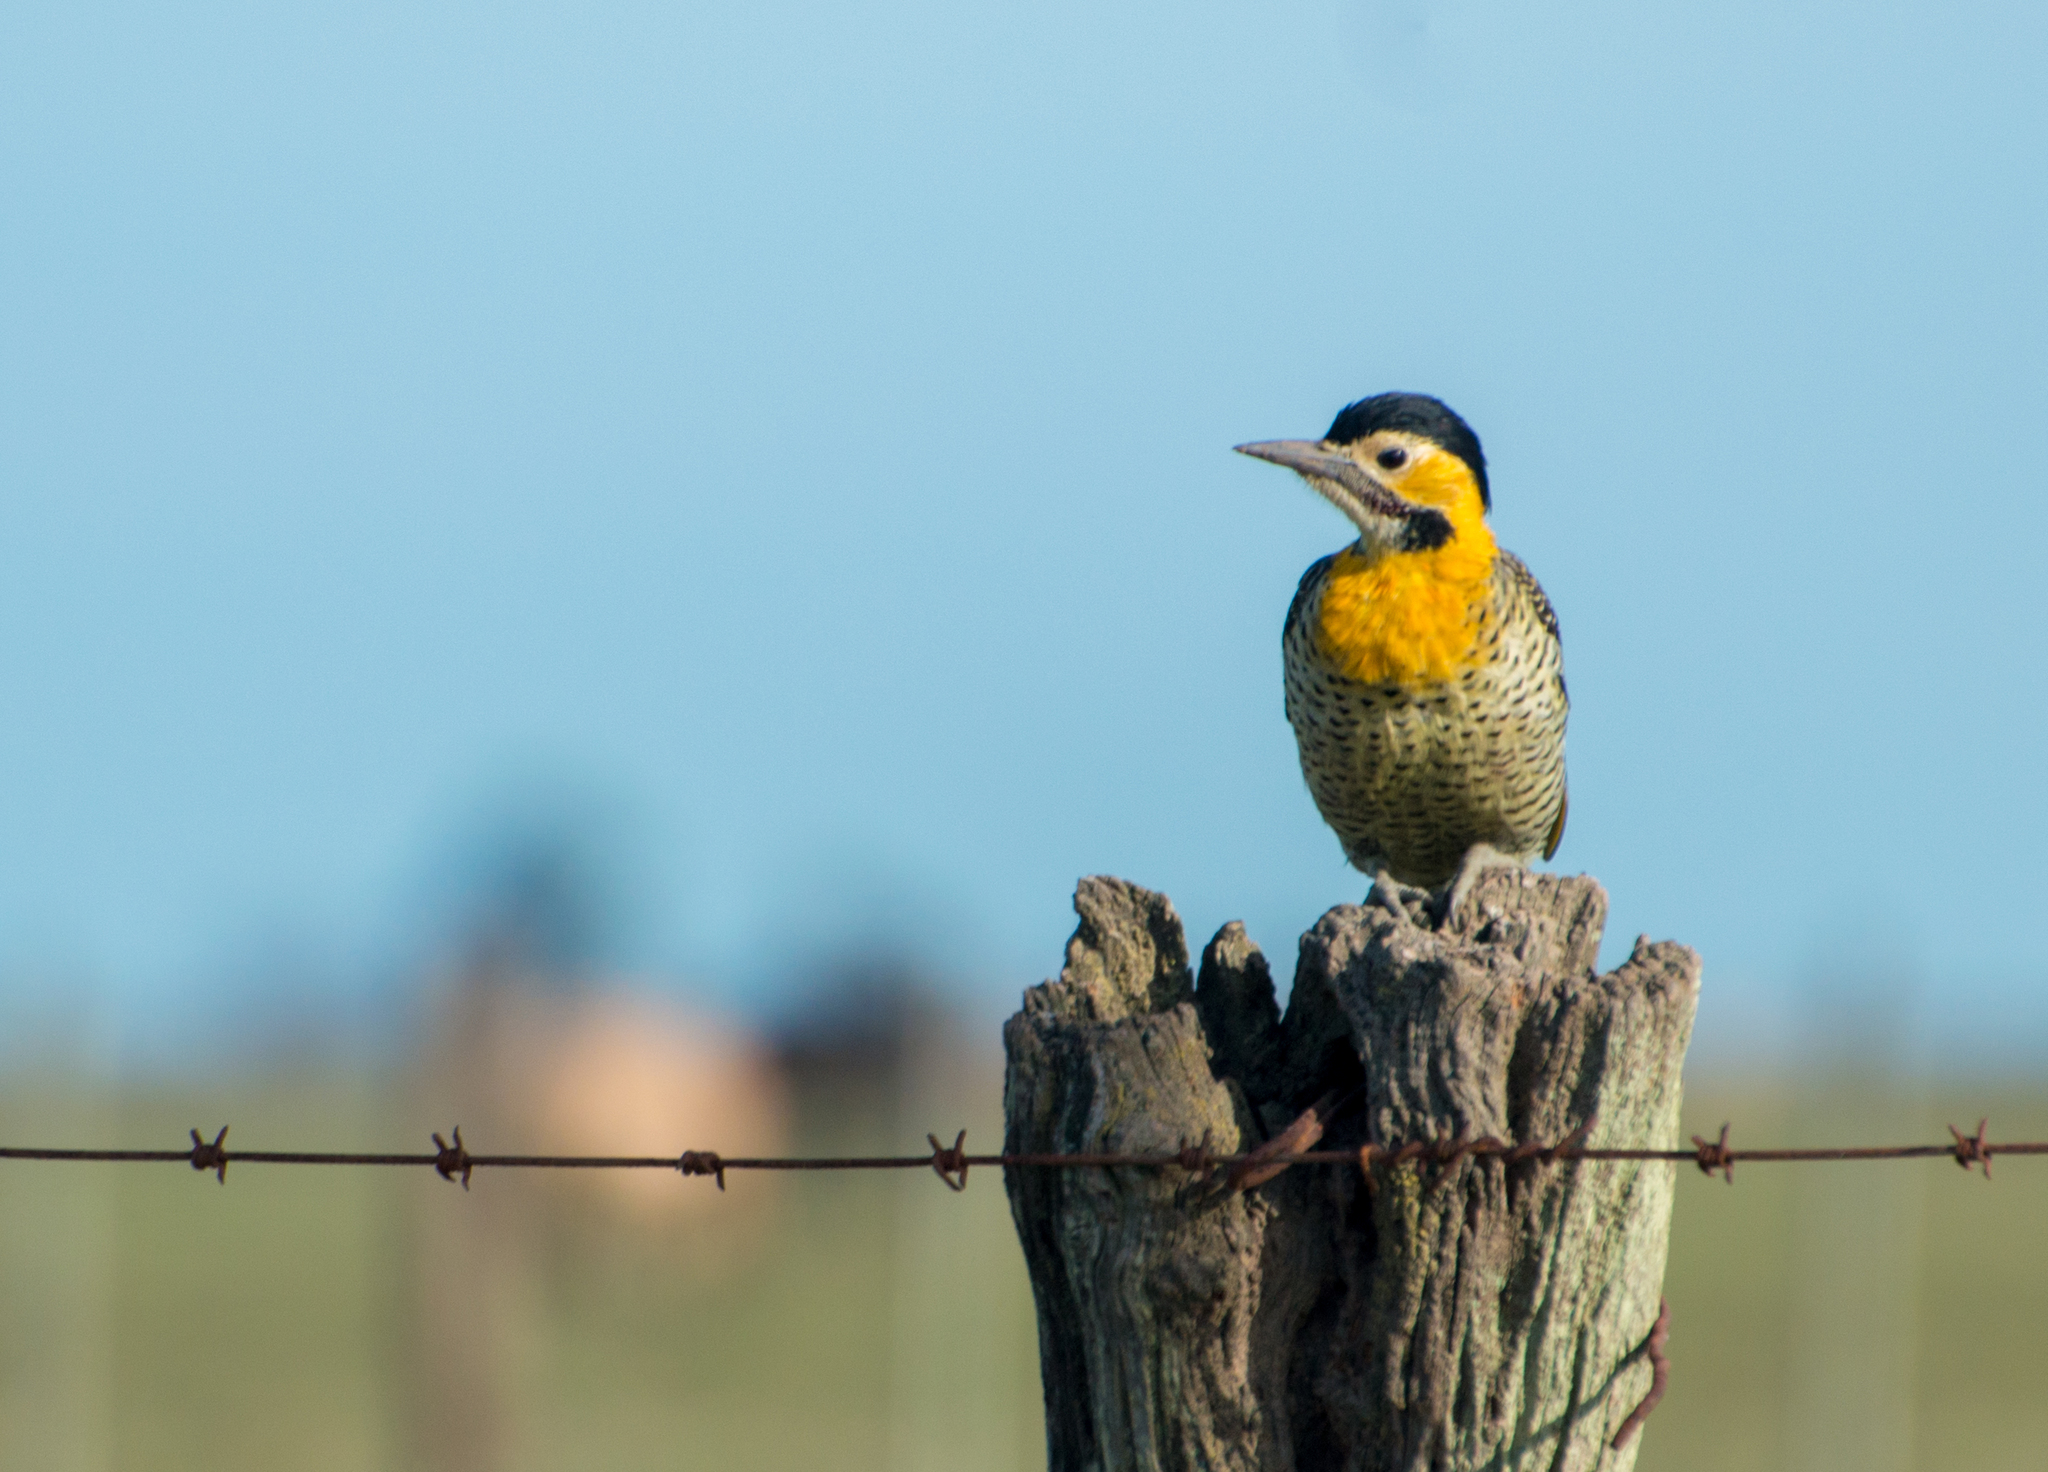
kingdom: Animalia
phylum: Chordata
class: Aves
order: Piciformes
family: Picidae
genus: Colaptes
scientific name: Colaptes campestris
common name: Campo flicker
